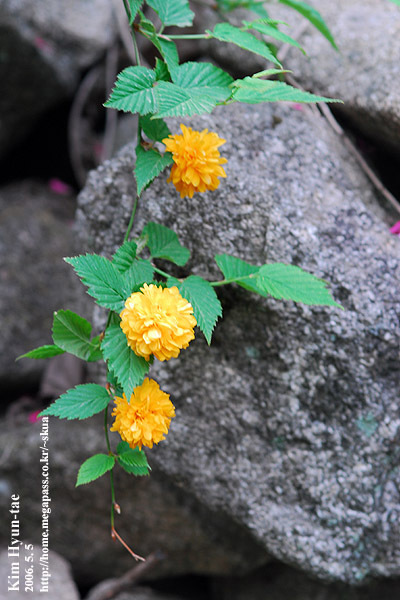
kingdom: Plantae
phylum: Tracheophyta
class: Magnoliopsida
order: Rosales
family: Rosaceae
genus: Kerria
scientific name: Kerria japonica
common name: Japanese kerria
